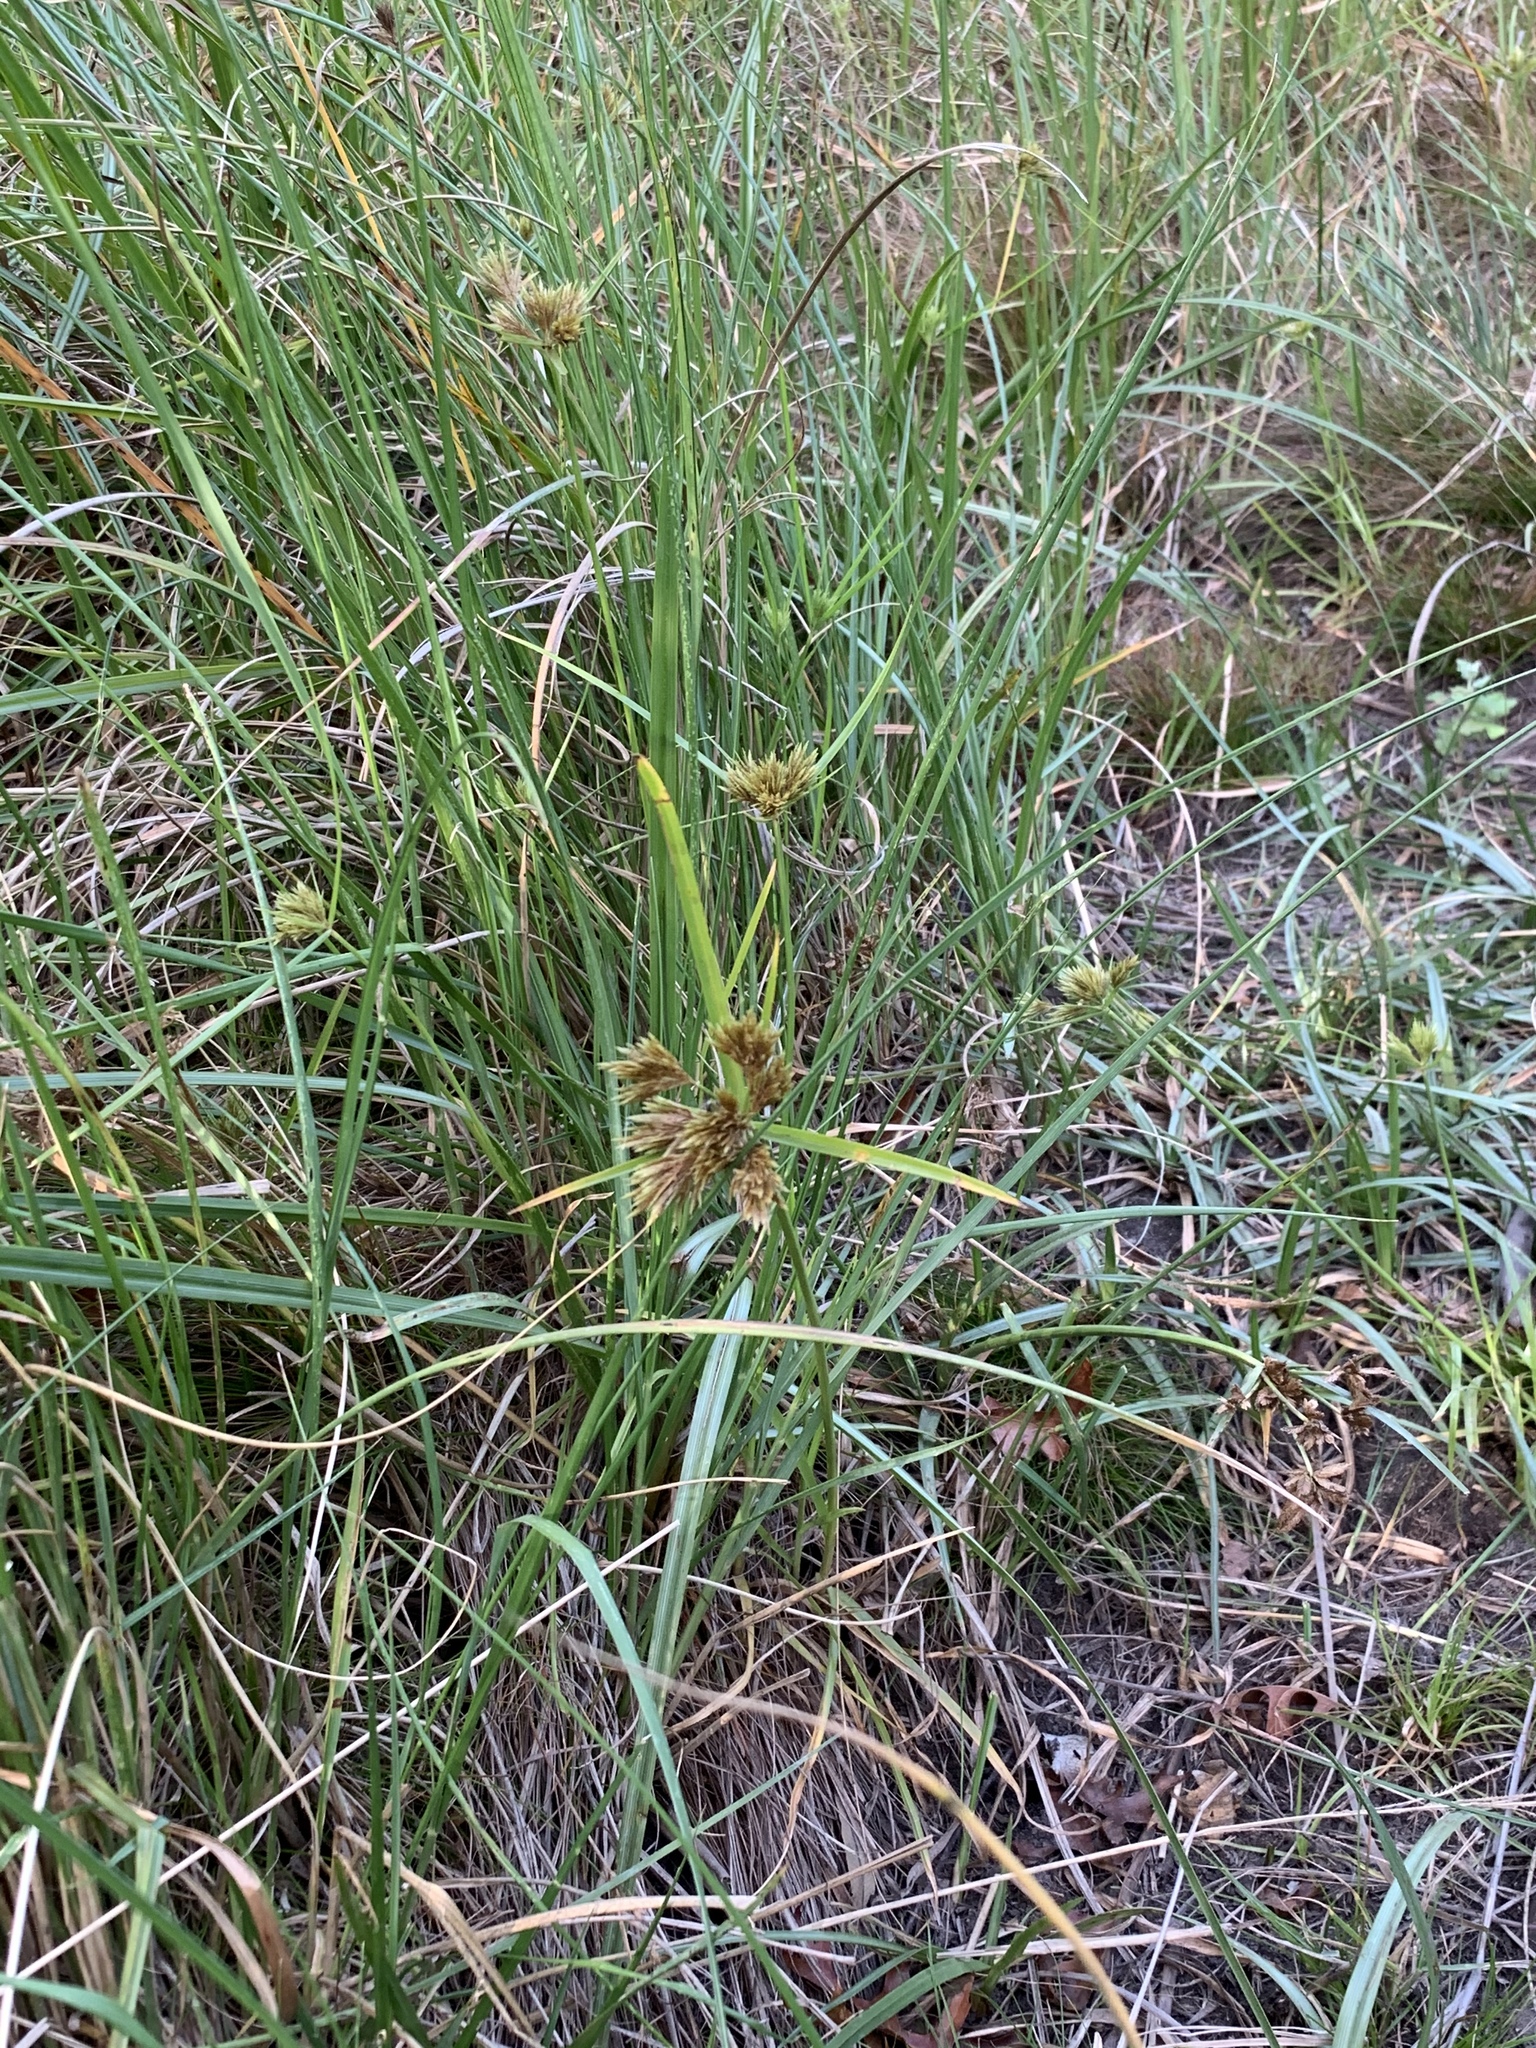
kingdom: Plantae
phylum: Tracheophyta
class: Liliopsida
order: Poales
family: Cyperaceae
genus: Cyperus
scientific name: Cyperus polystachyos
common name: Bunchy flat sedge
